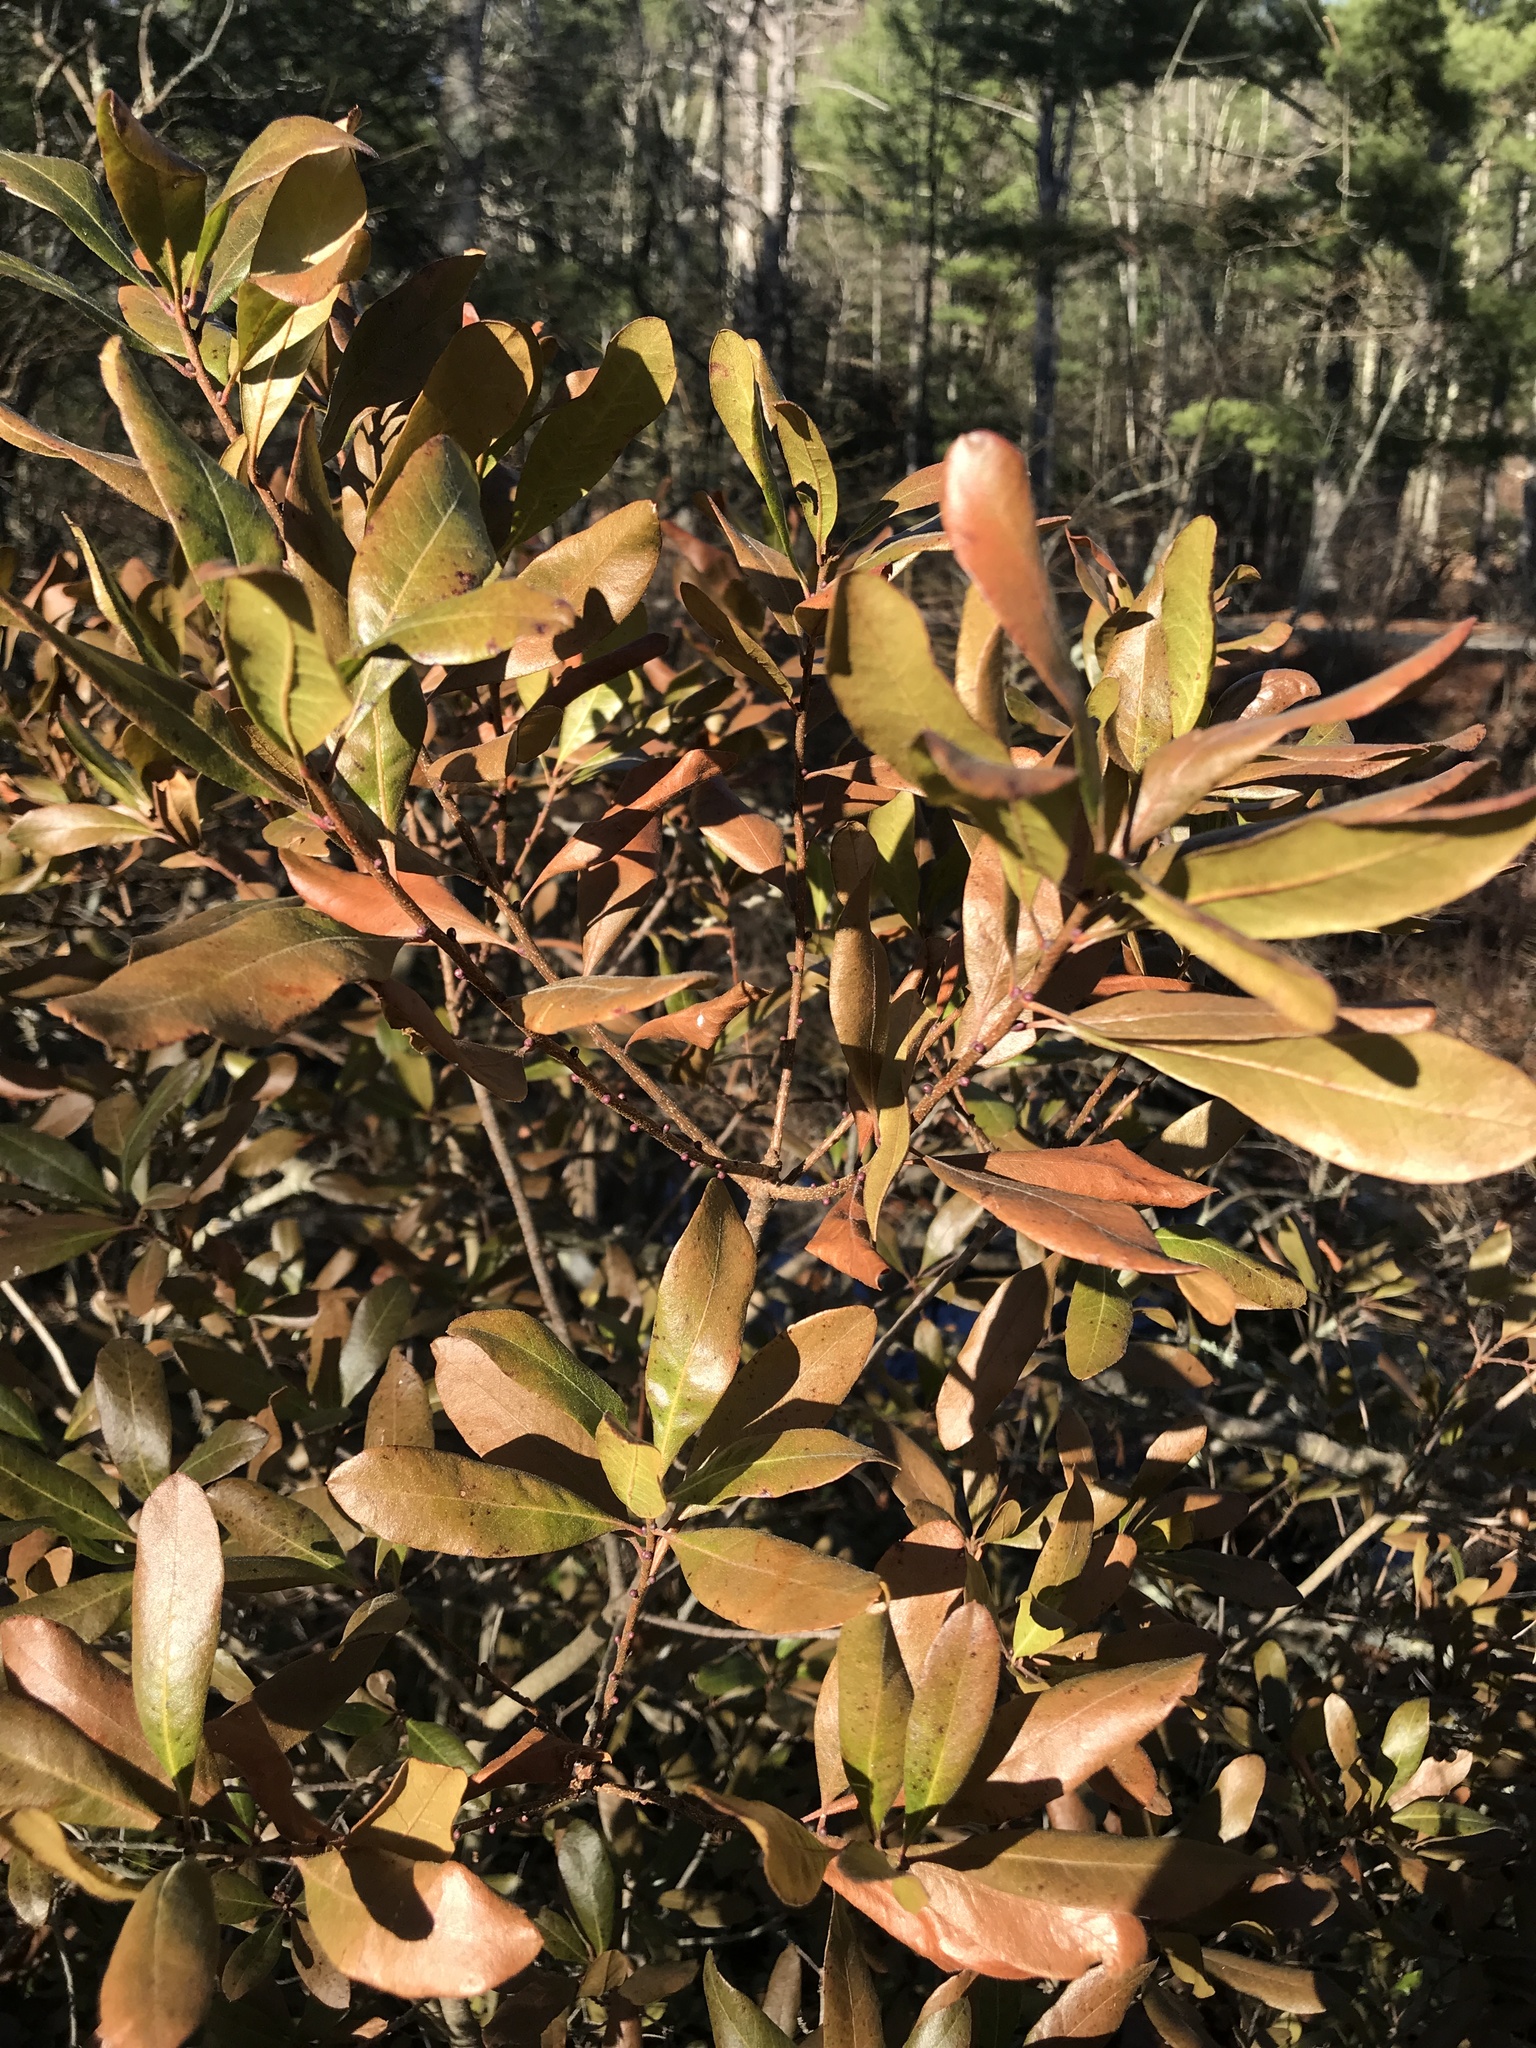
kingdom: Plantae
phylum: Tracheophyta
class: Magnoliopsida
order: Fagales
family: Myricaceae
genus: Morella
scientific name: Morella pensylvanica
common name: Northern bayberry
